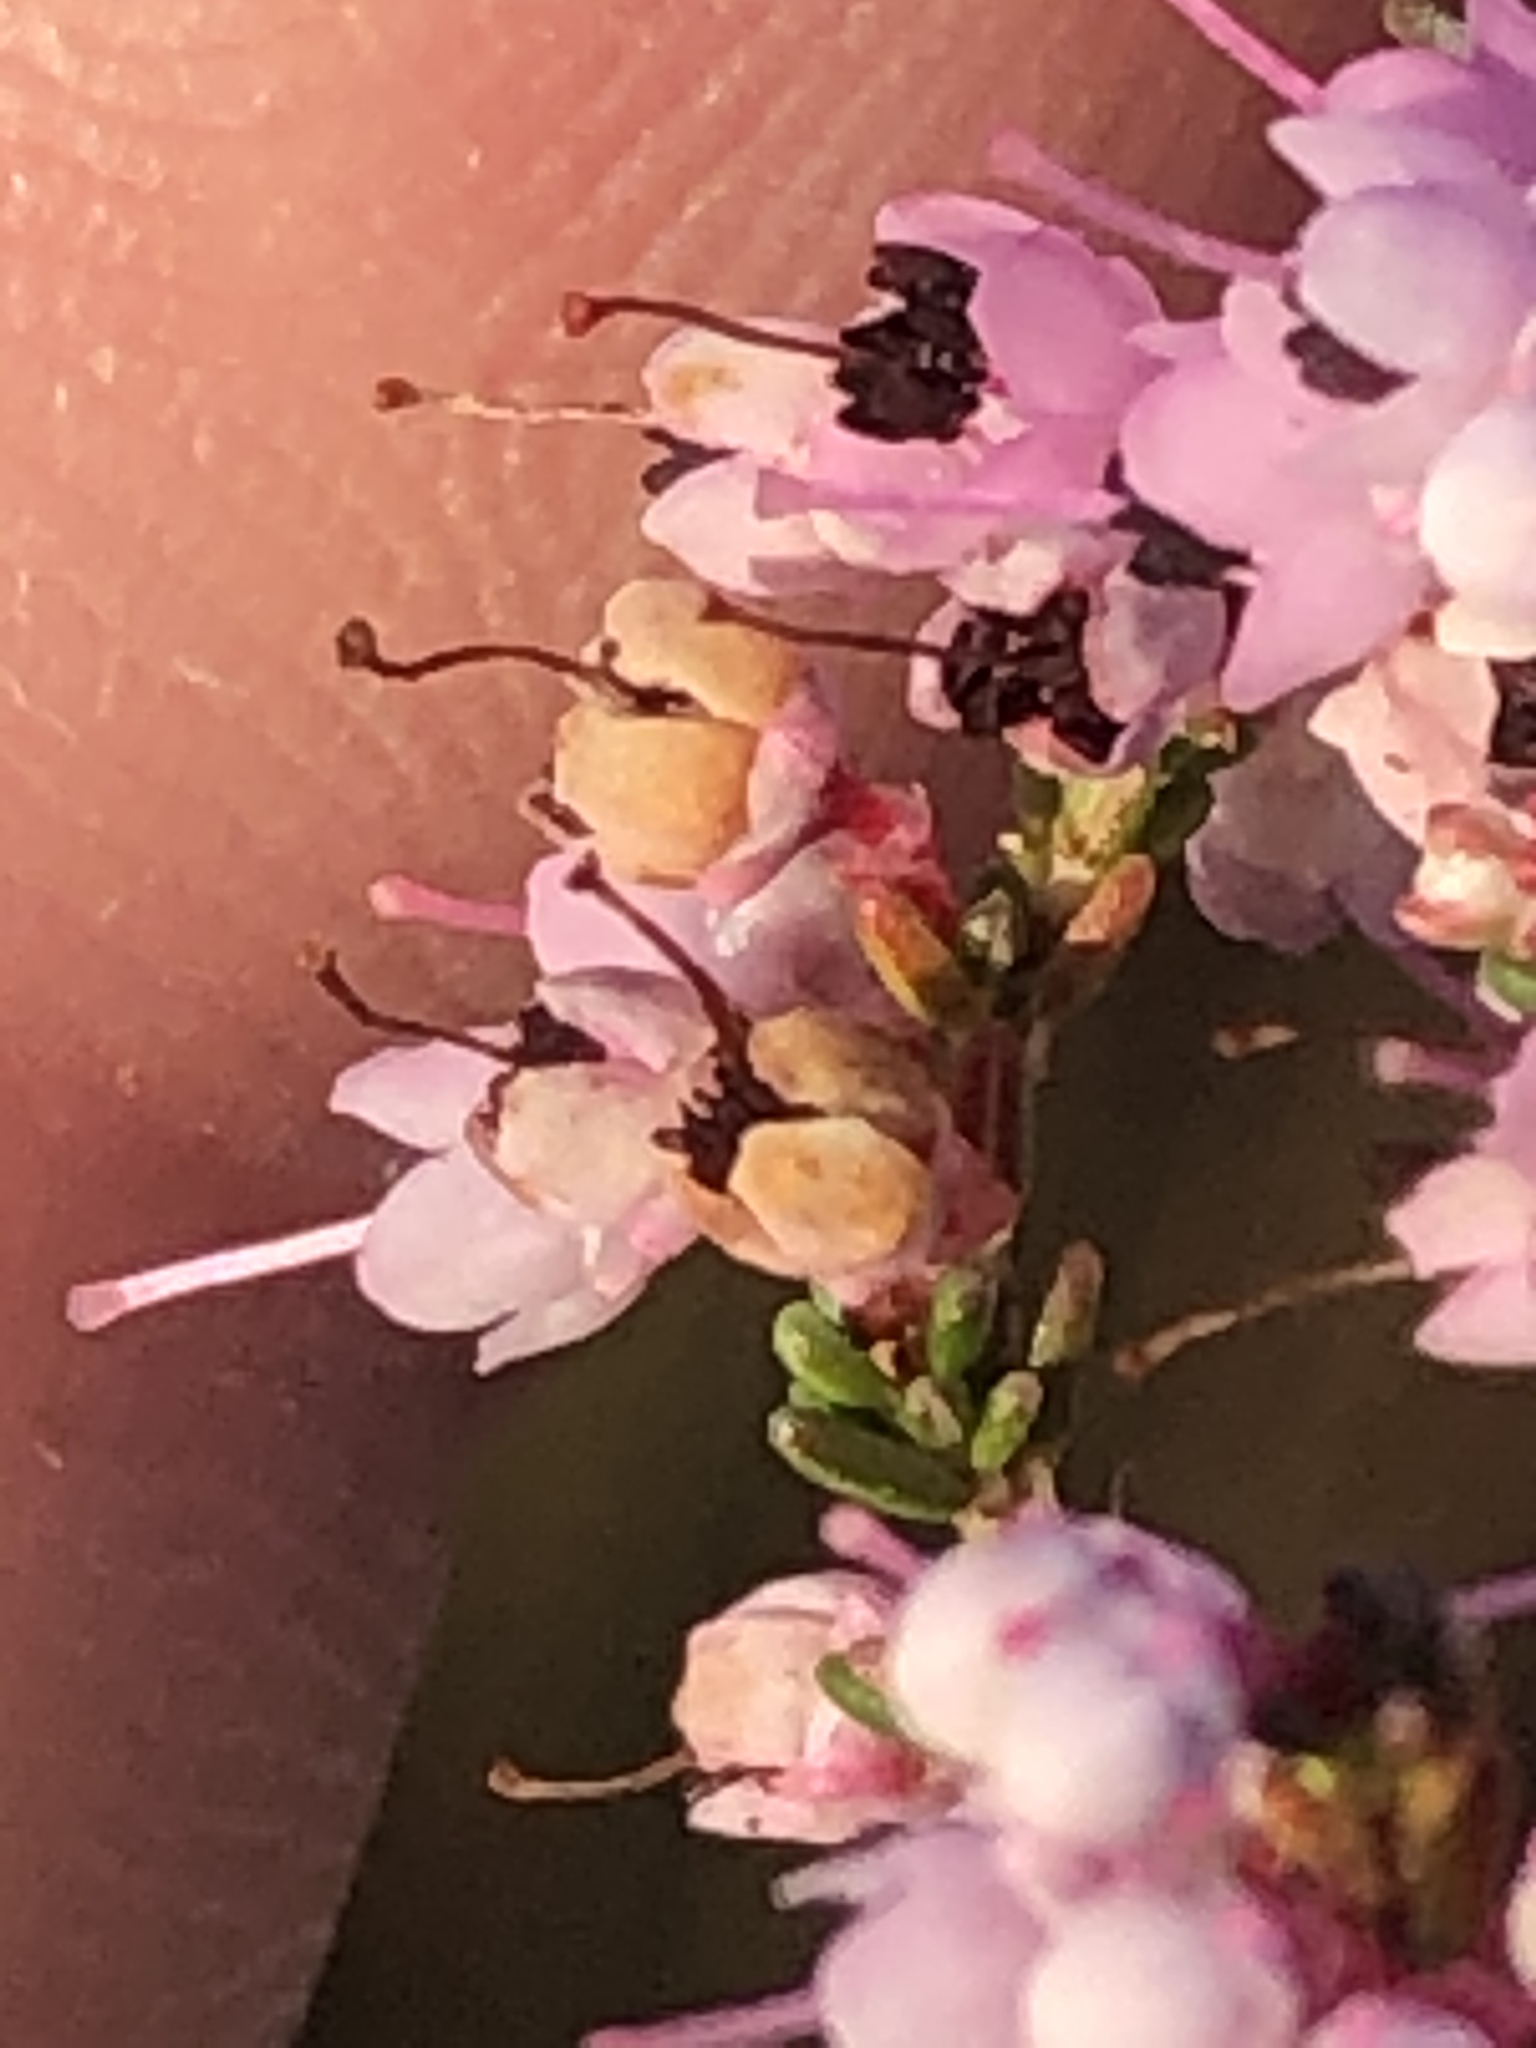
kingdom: Plantae
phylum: Tracheophyta
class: Magnoliopsida
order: Ericales
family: Ericaceae
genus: Erica
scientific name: Erica sparsa
